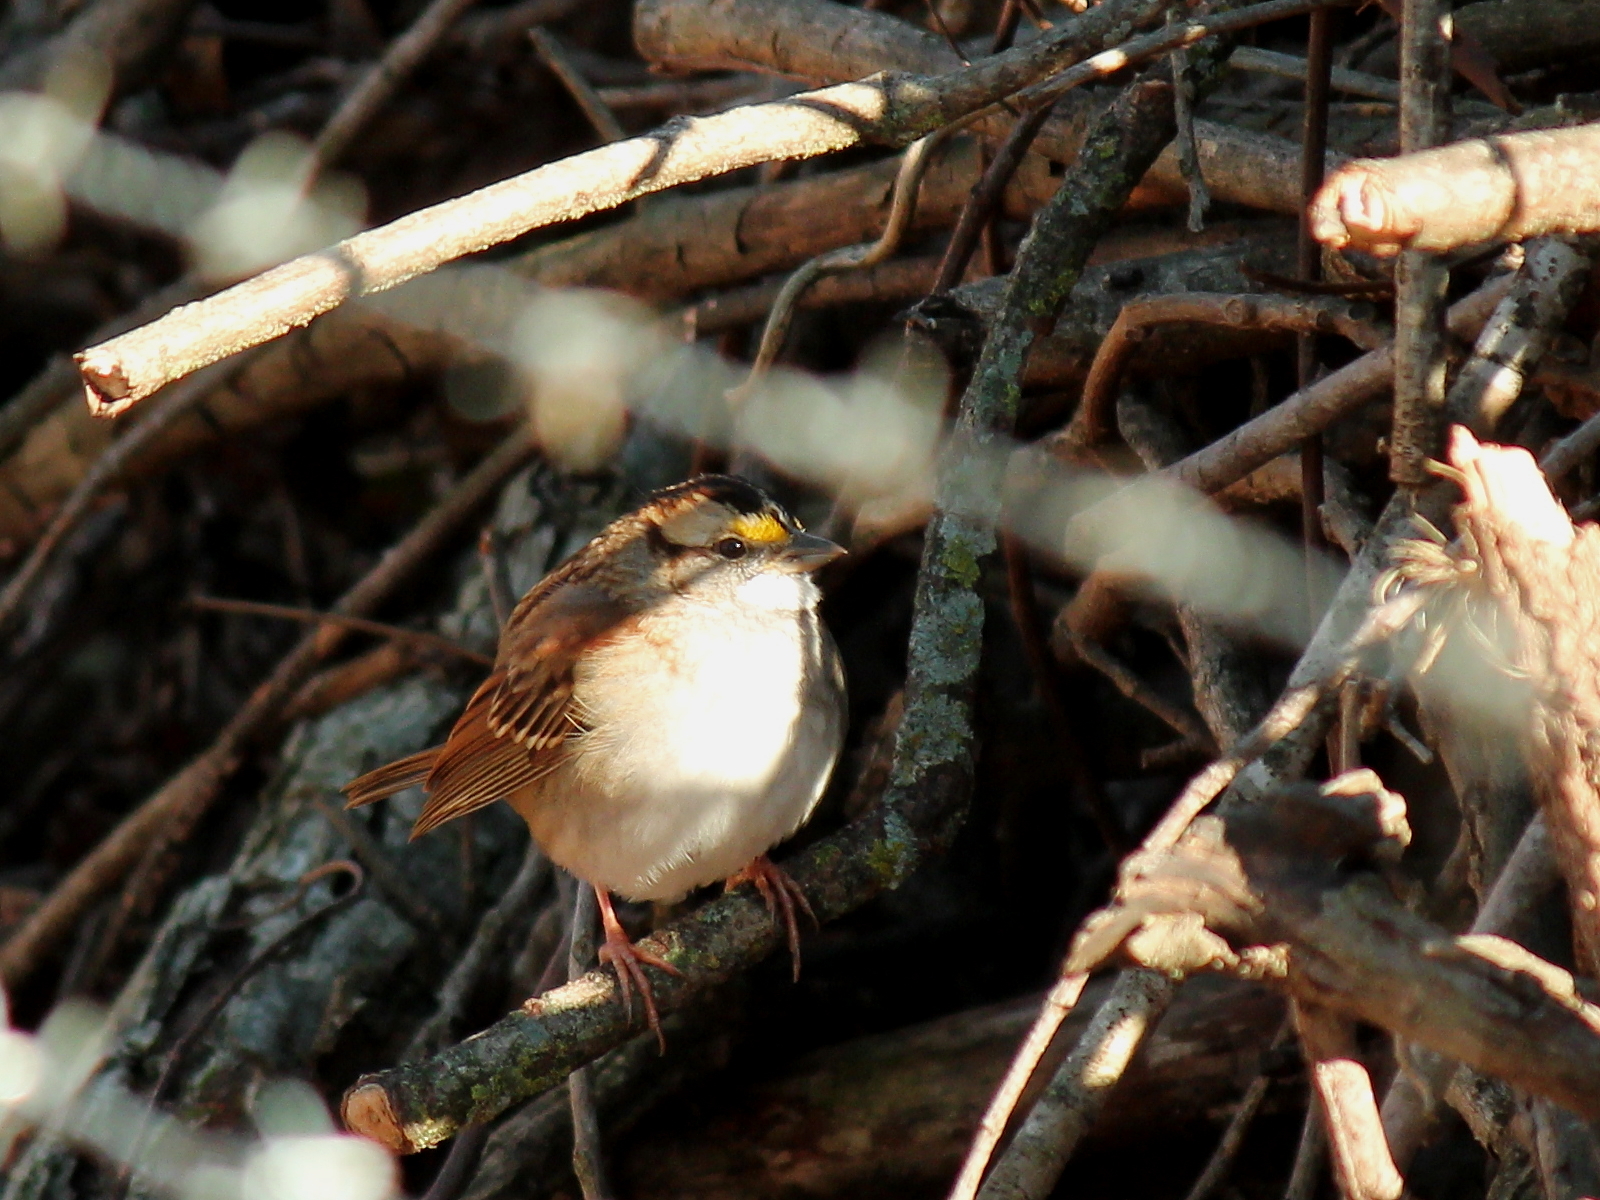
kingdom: Animalia
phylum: Chordata
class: Aves
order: Passeriformes
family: Passerellidae
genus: Zonotrichia
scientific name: Zonotrichia albicollis
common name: White-throated sparrow
